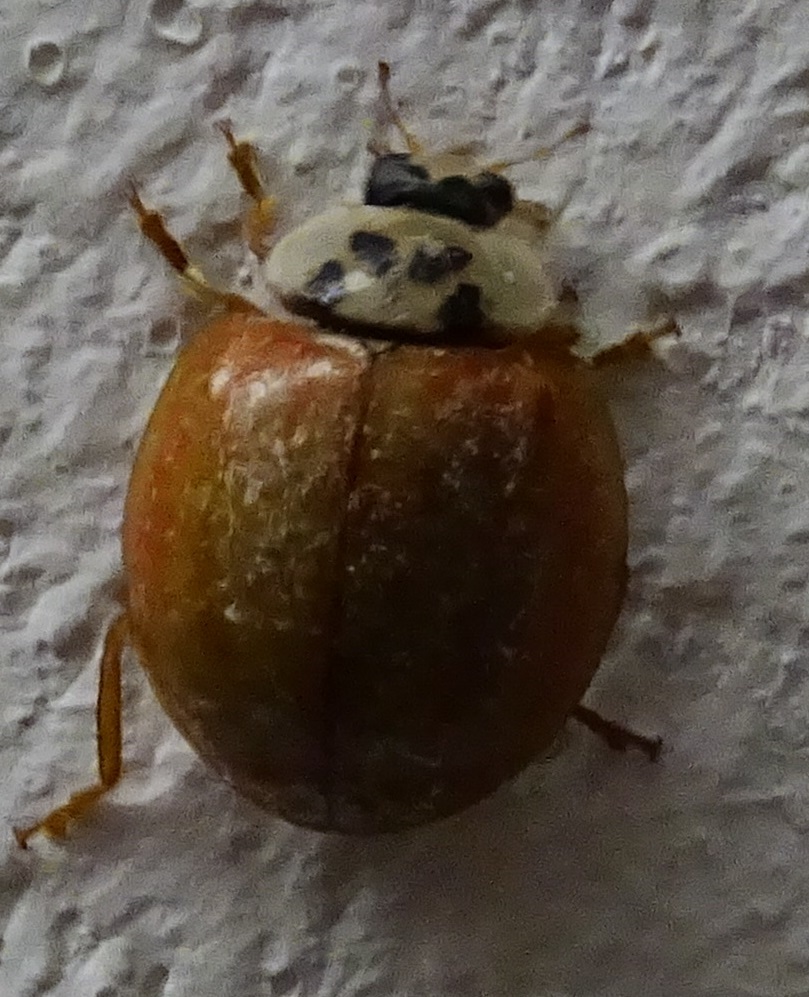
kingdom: Animalia
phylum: Arthropoda
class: Insecta
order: Coleoptera
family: Coccinellidae
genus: Harmonia
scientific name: Harmonia axyridis
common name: Harlequin ladybird
